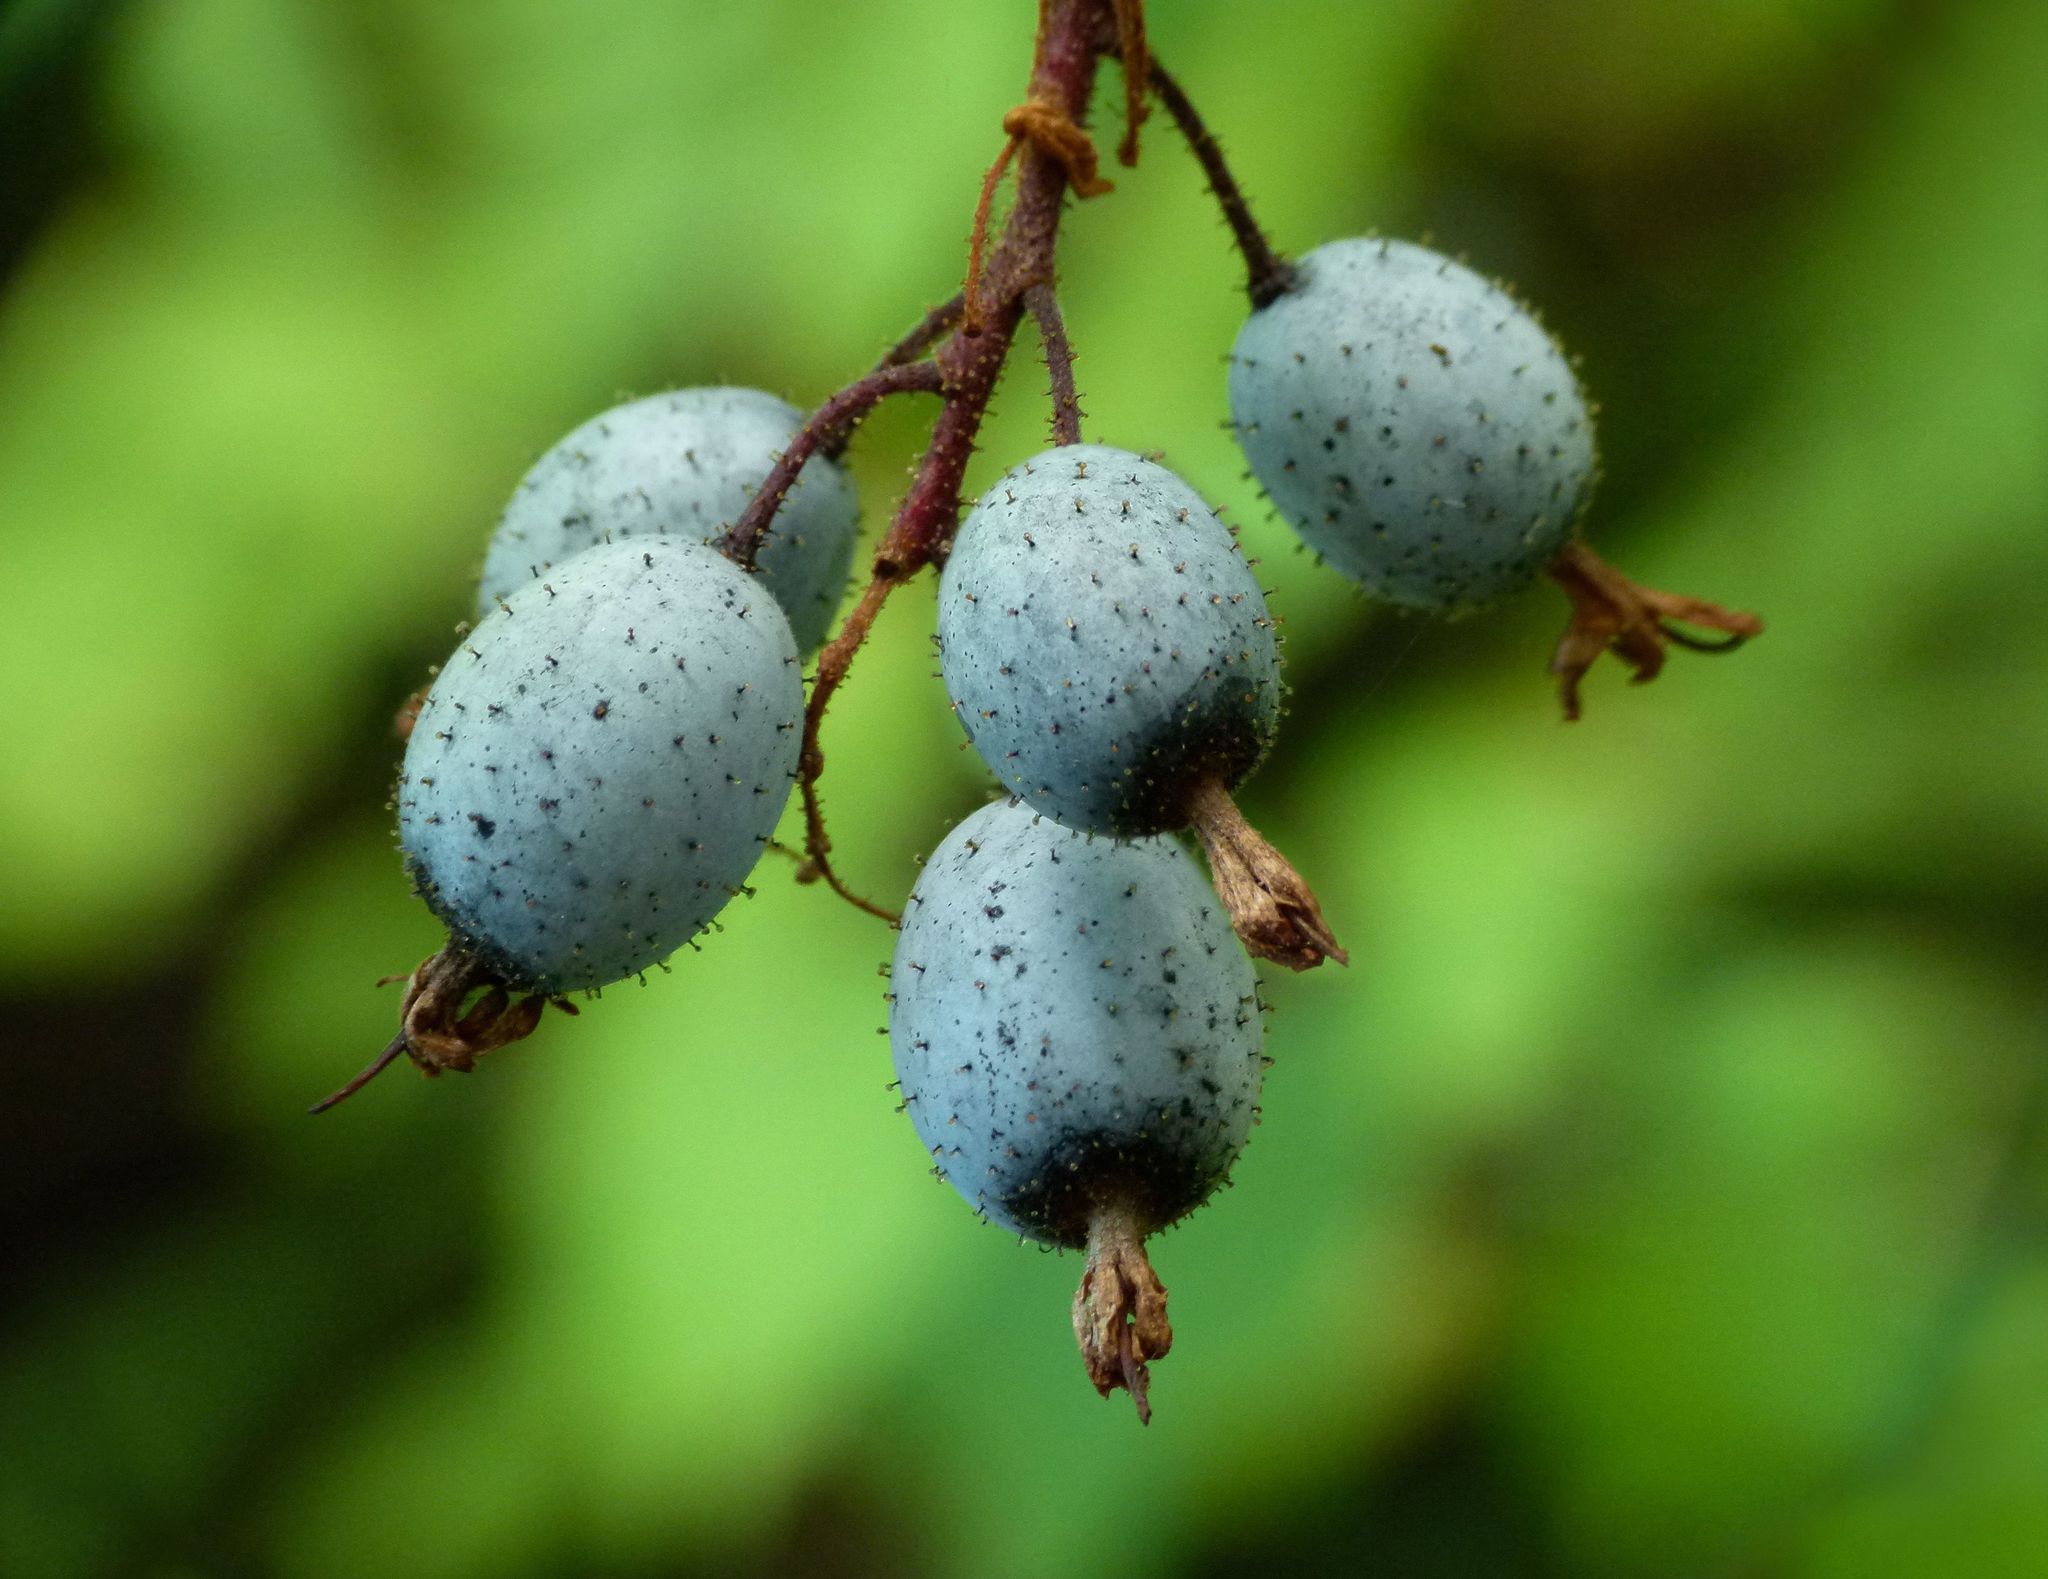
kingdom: Plantae
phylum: Tracheophyta
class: Magnoliopsida
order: Saxifragales
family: Grossulariaceae
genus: Ribes
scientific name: Ribes sanguineum
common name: Flowering currant
